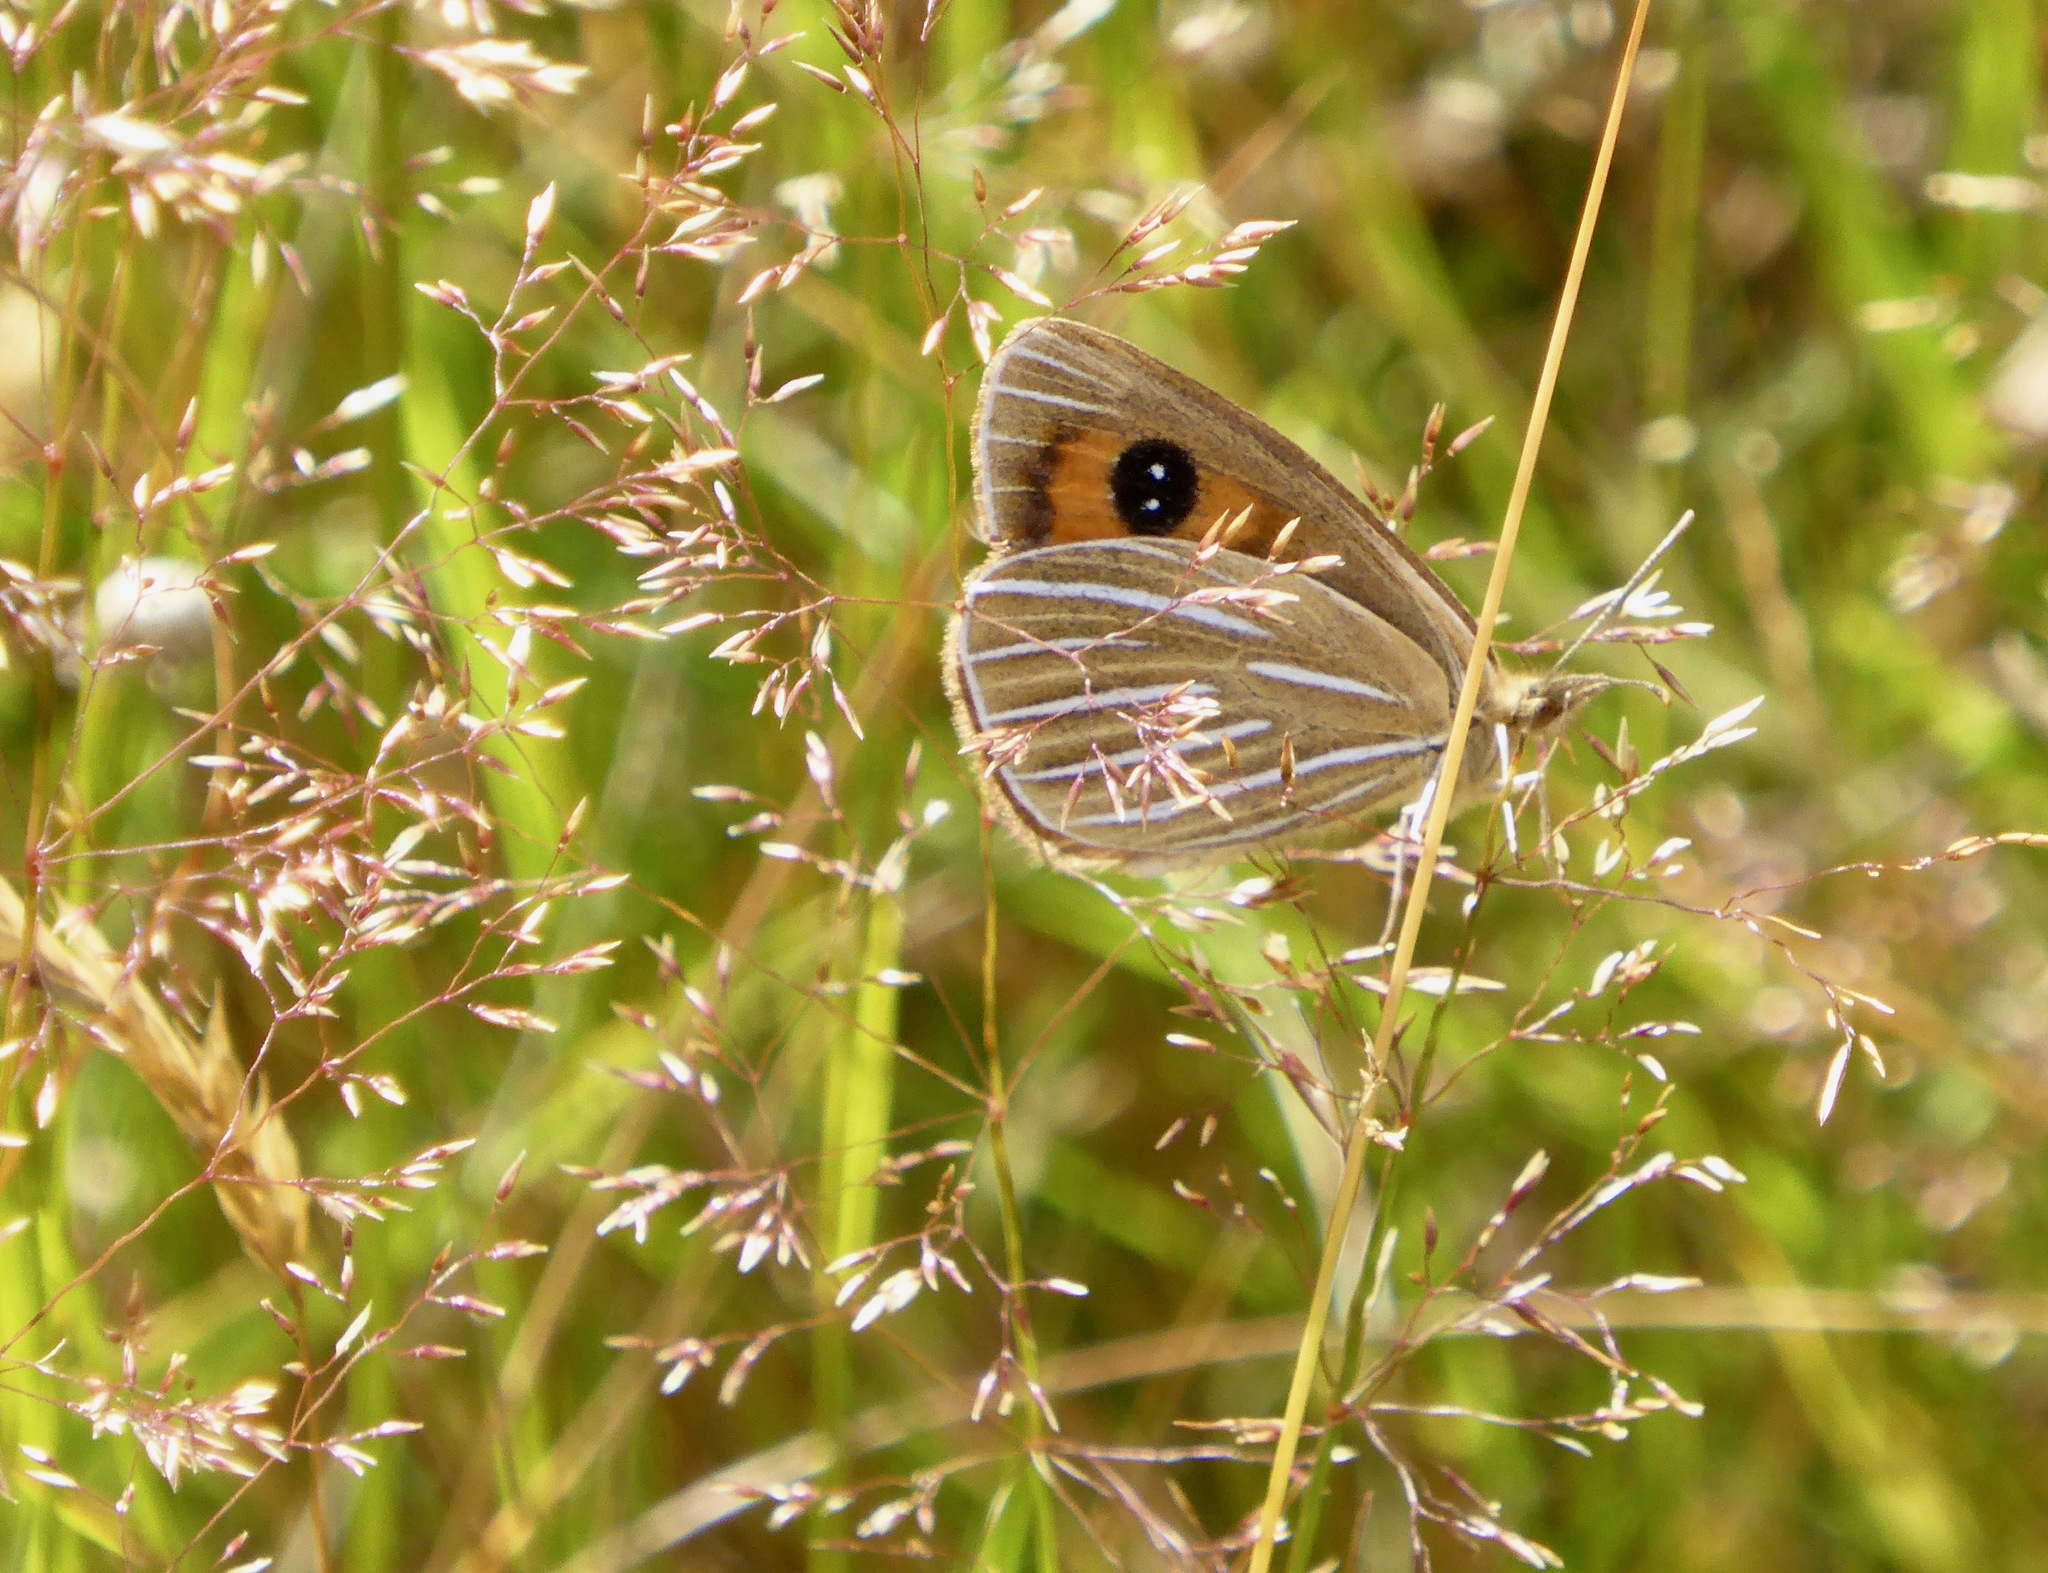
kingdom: Animalia
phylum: Arthropoda
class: Insecta
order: Lepidoptera
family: Nymphalidae
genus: Argyrophenga
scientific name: Argyrophenga antipodum
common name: Common tussock butterfly
